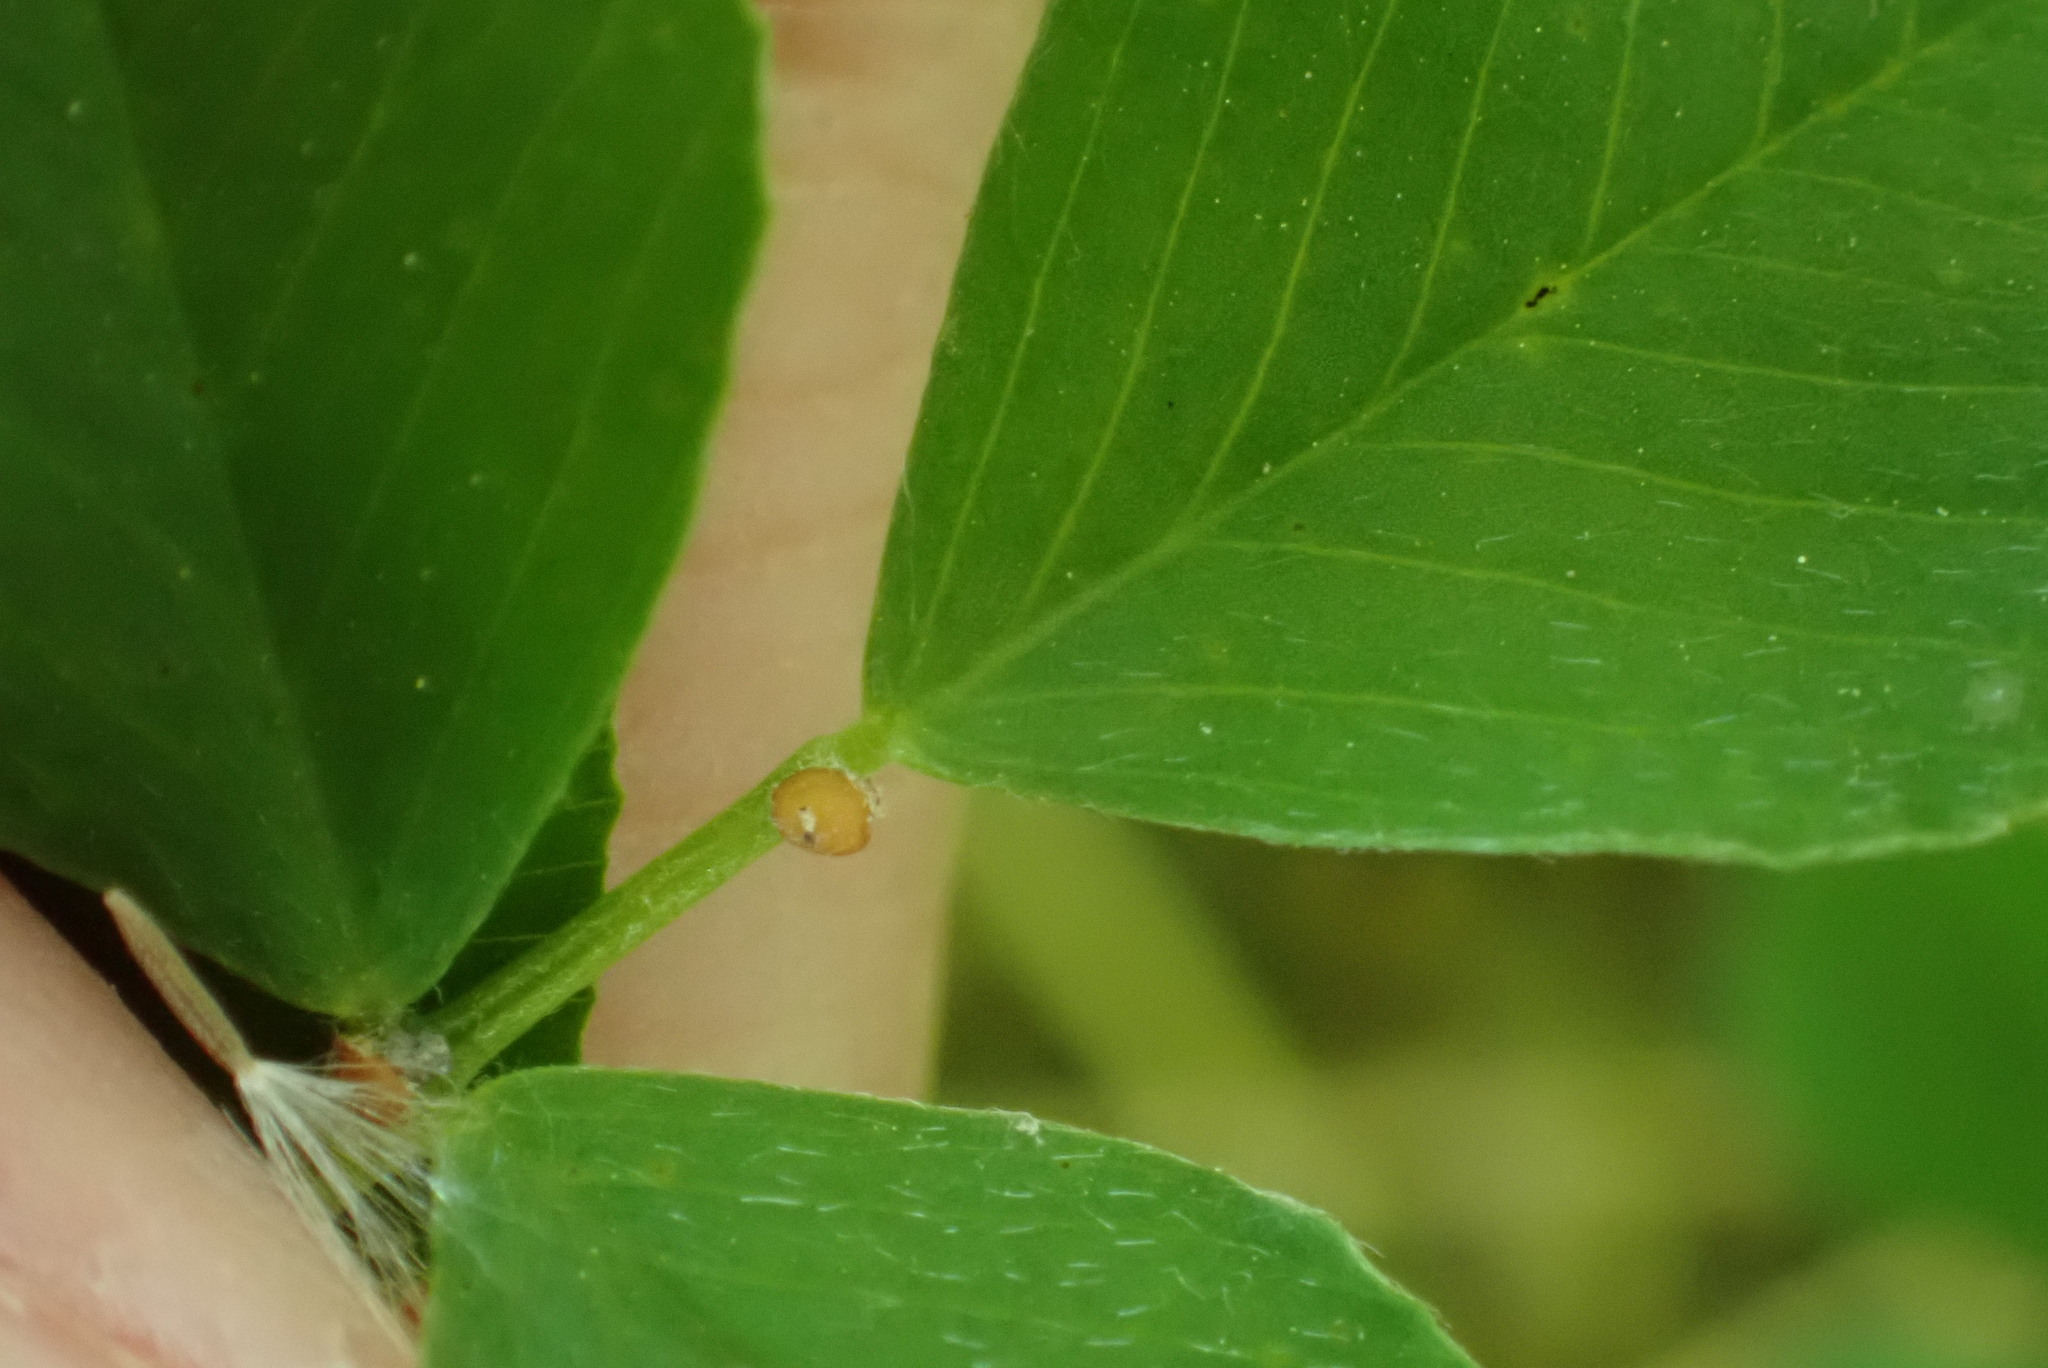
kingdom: Plantae
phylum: Tracheophyta
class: Magnoliopsida
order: Fabales
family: Fabaceae
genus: Medicago
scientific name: Medicago lupulina
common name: Black medick
